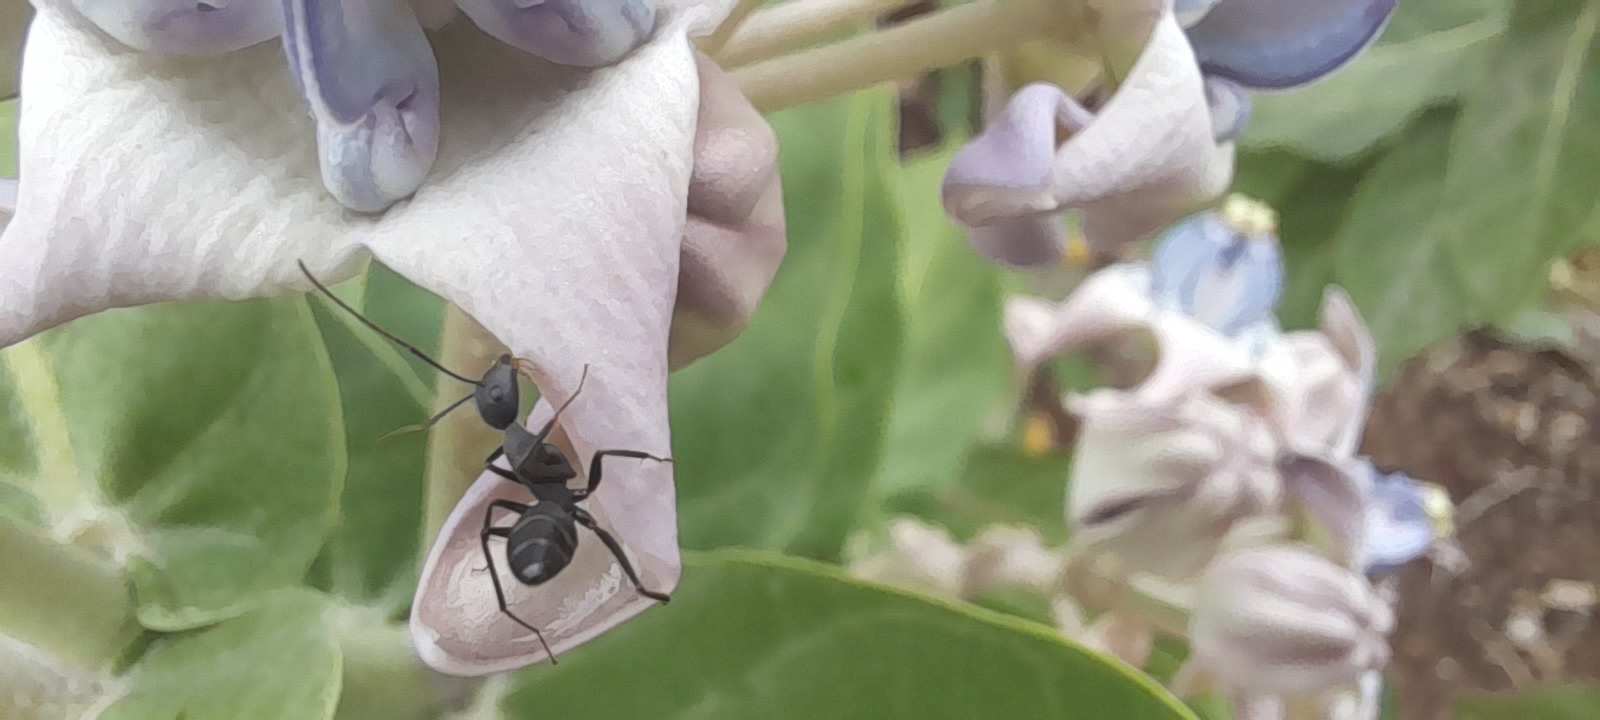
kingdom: Animalia
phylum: Arthropoda
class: Insecta
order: Hymenoptera
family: Formicidae
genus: Camponotus
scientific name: Camponotus compressus
